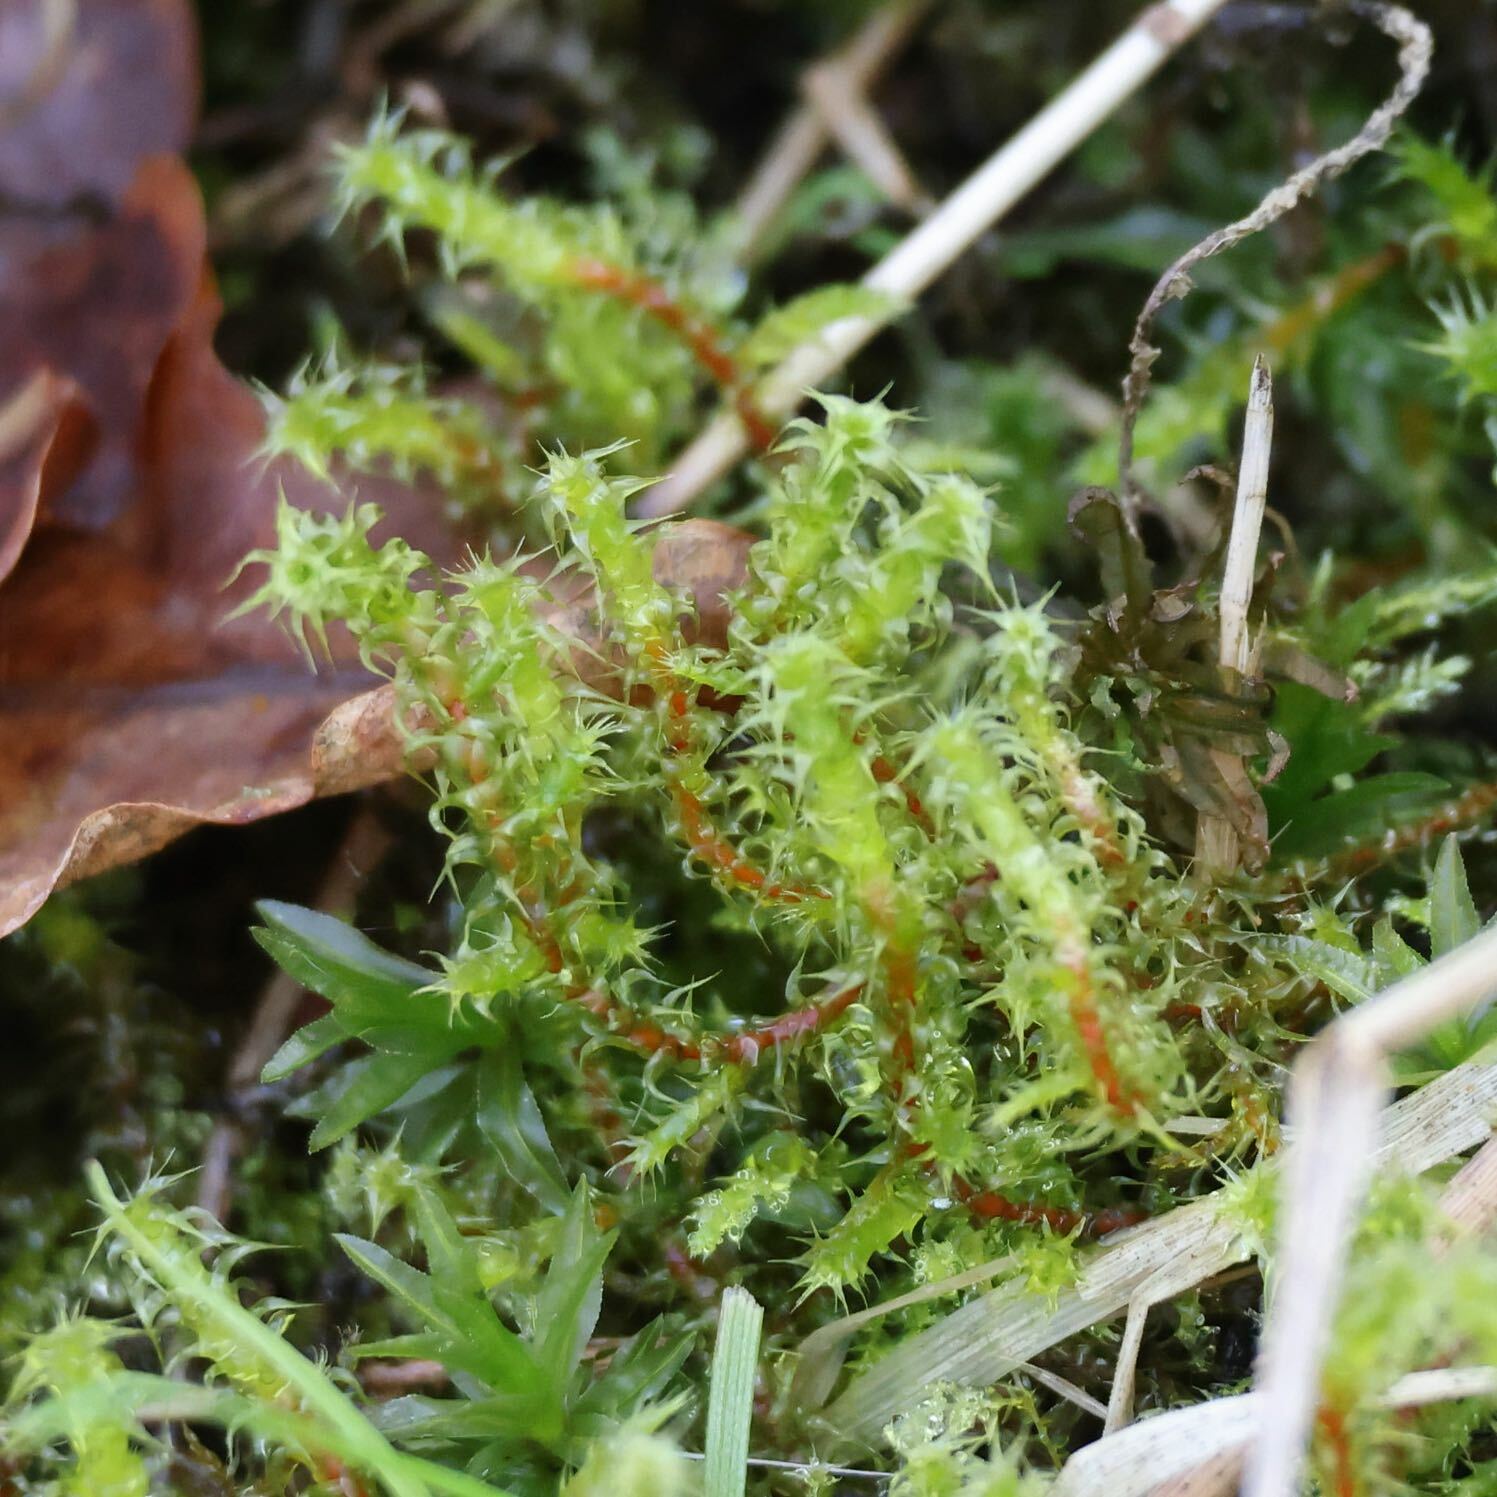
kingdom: Plantae
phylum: Bryophyta
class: Bryopsida
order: Hypnales
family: Hylocomiaceae
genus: Rhytidiadelphus
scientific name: Rhytidiadelphus squarrosus
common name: Springy turf-moss
